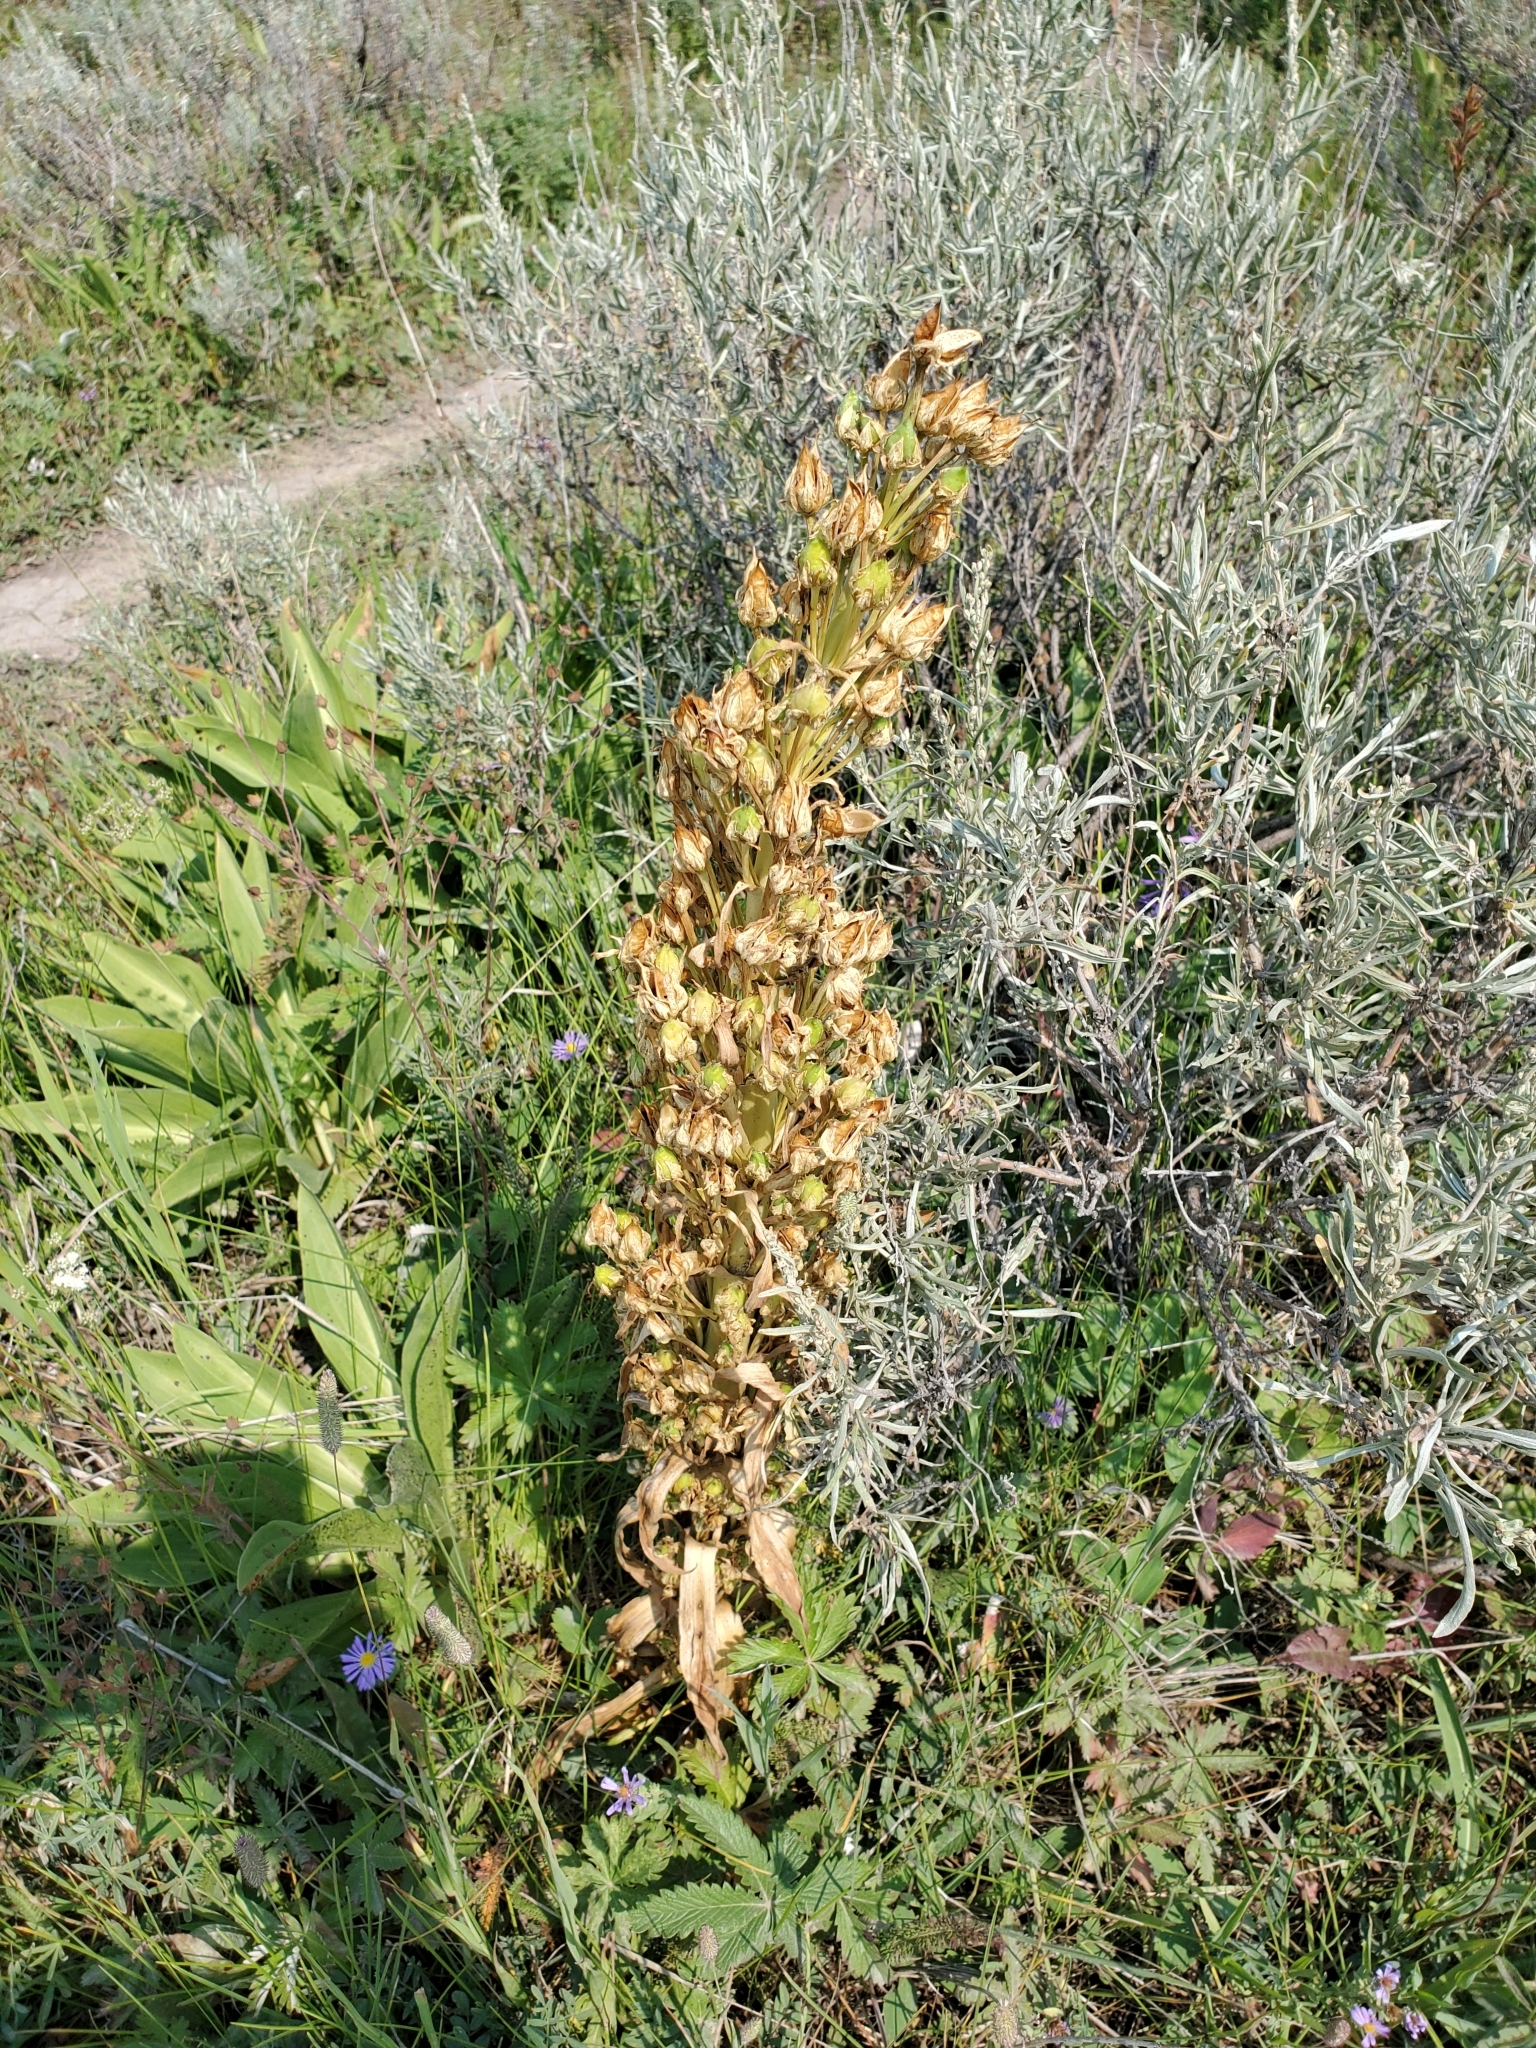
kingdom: Plantae
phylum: Tracheophyta
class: Magnoliopsida
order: Gentianales
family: Gentianaceae
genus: Frasera
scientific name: Frasera speciosa
